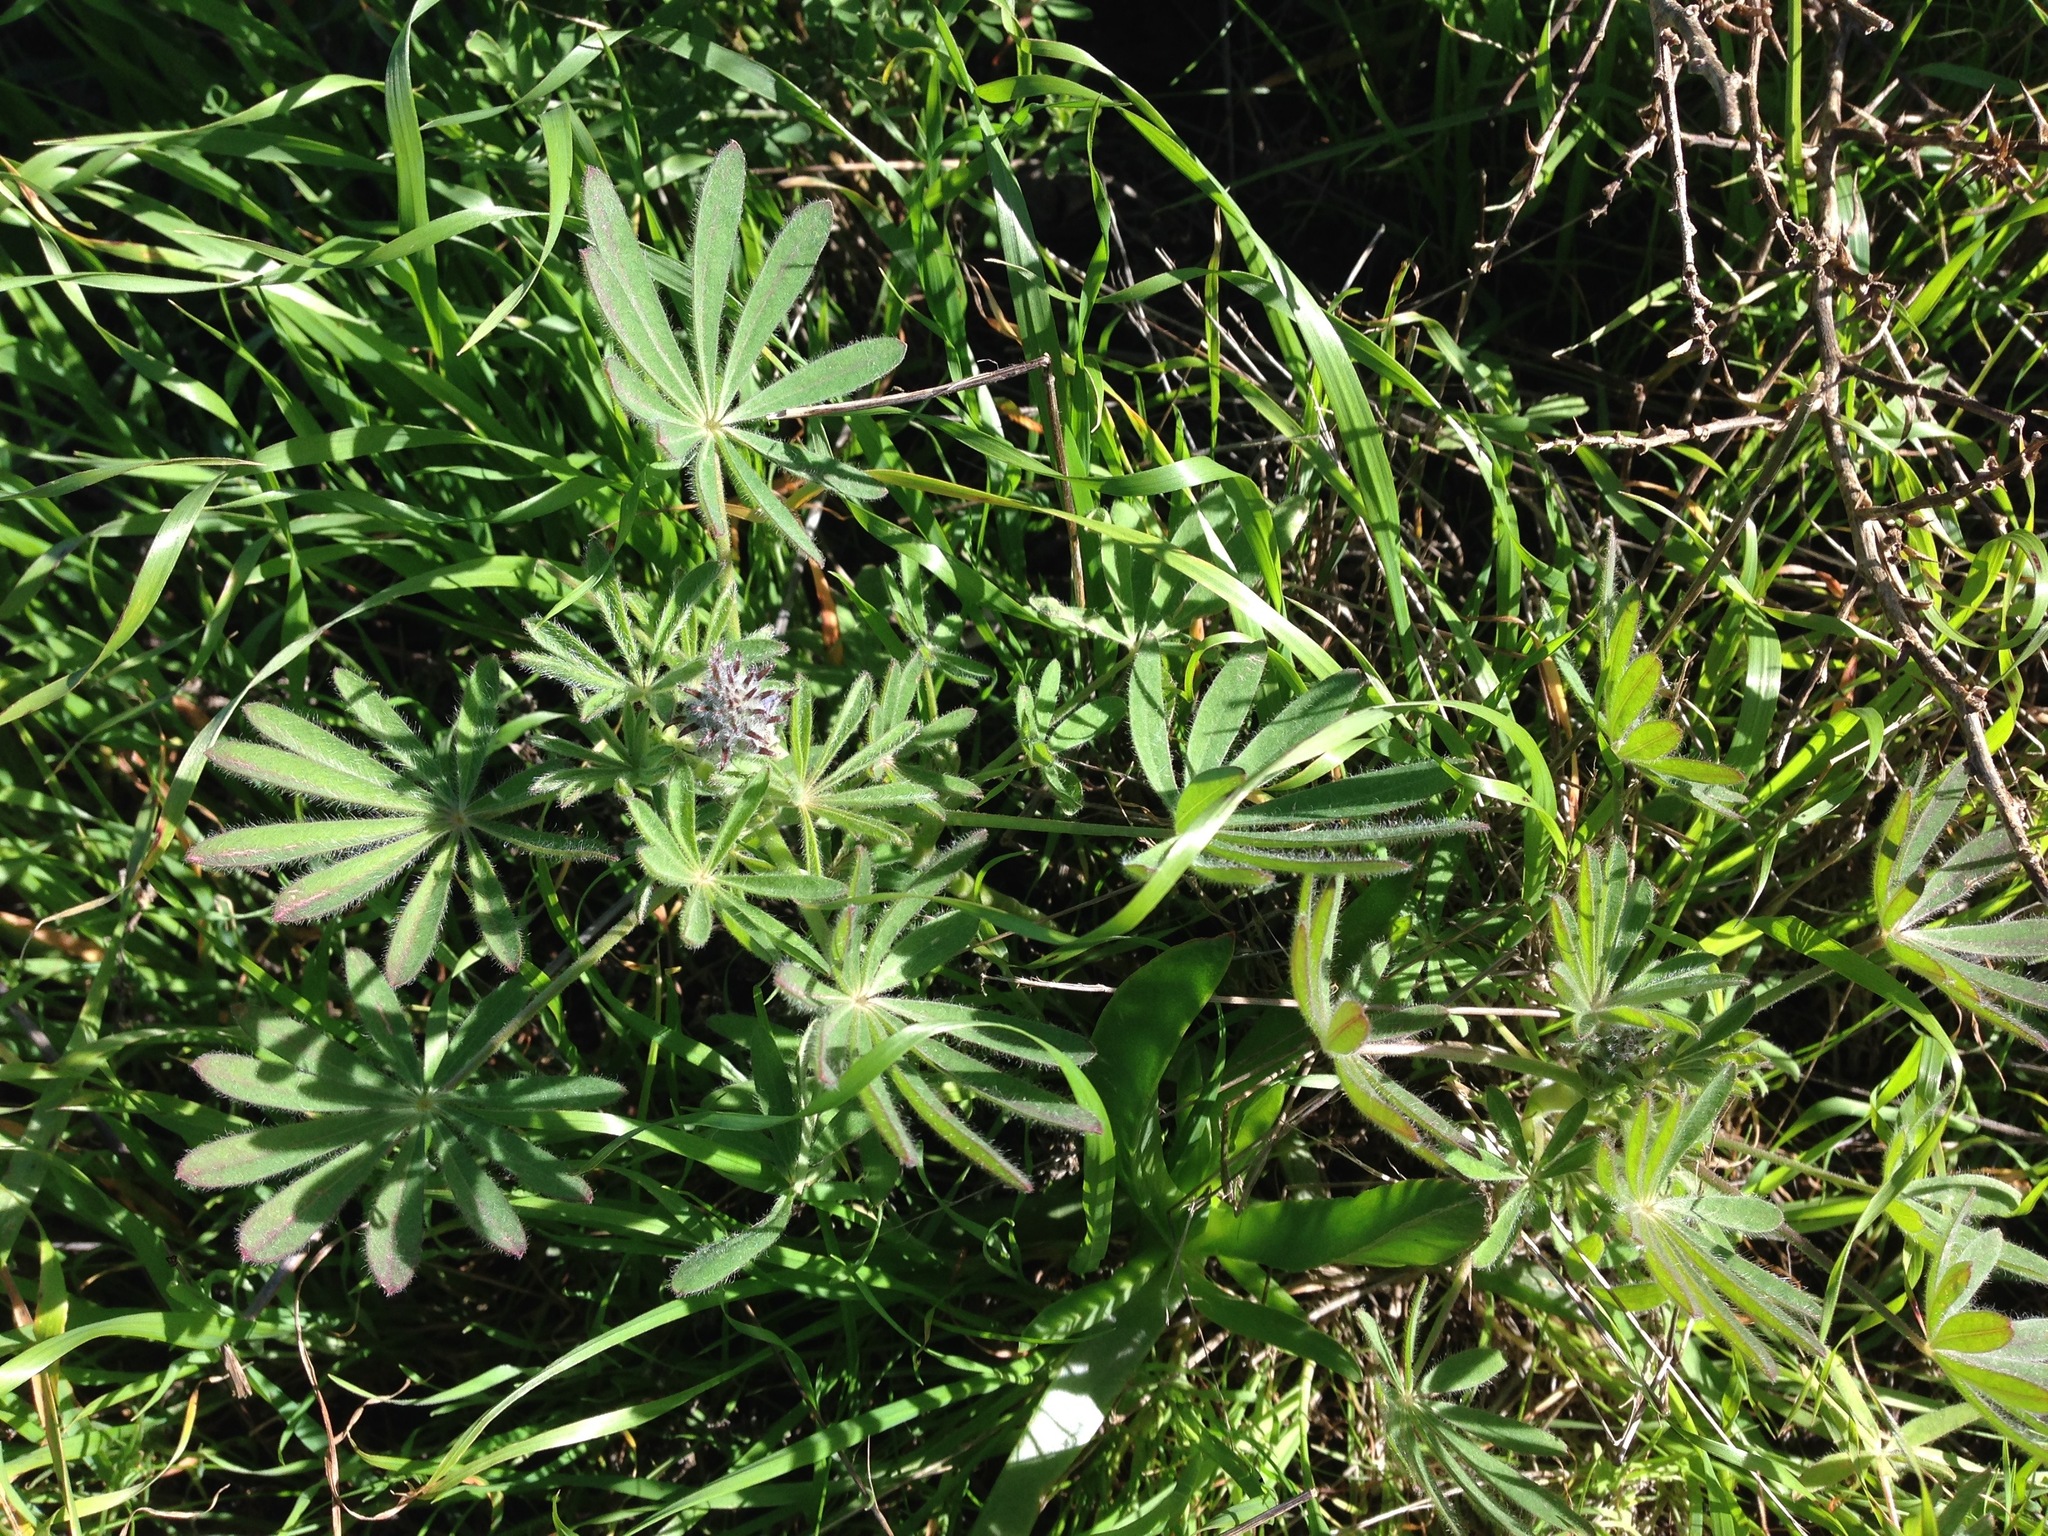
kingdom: Plantae
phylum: Tracheophyta
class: Magnoliopsida
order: Fabales
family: Fabaceae
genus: Lupinus
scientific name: Lupinus guadalupensis
